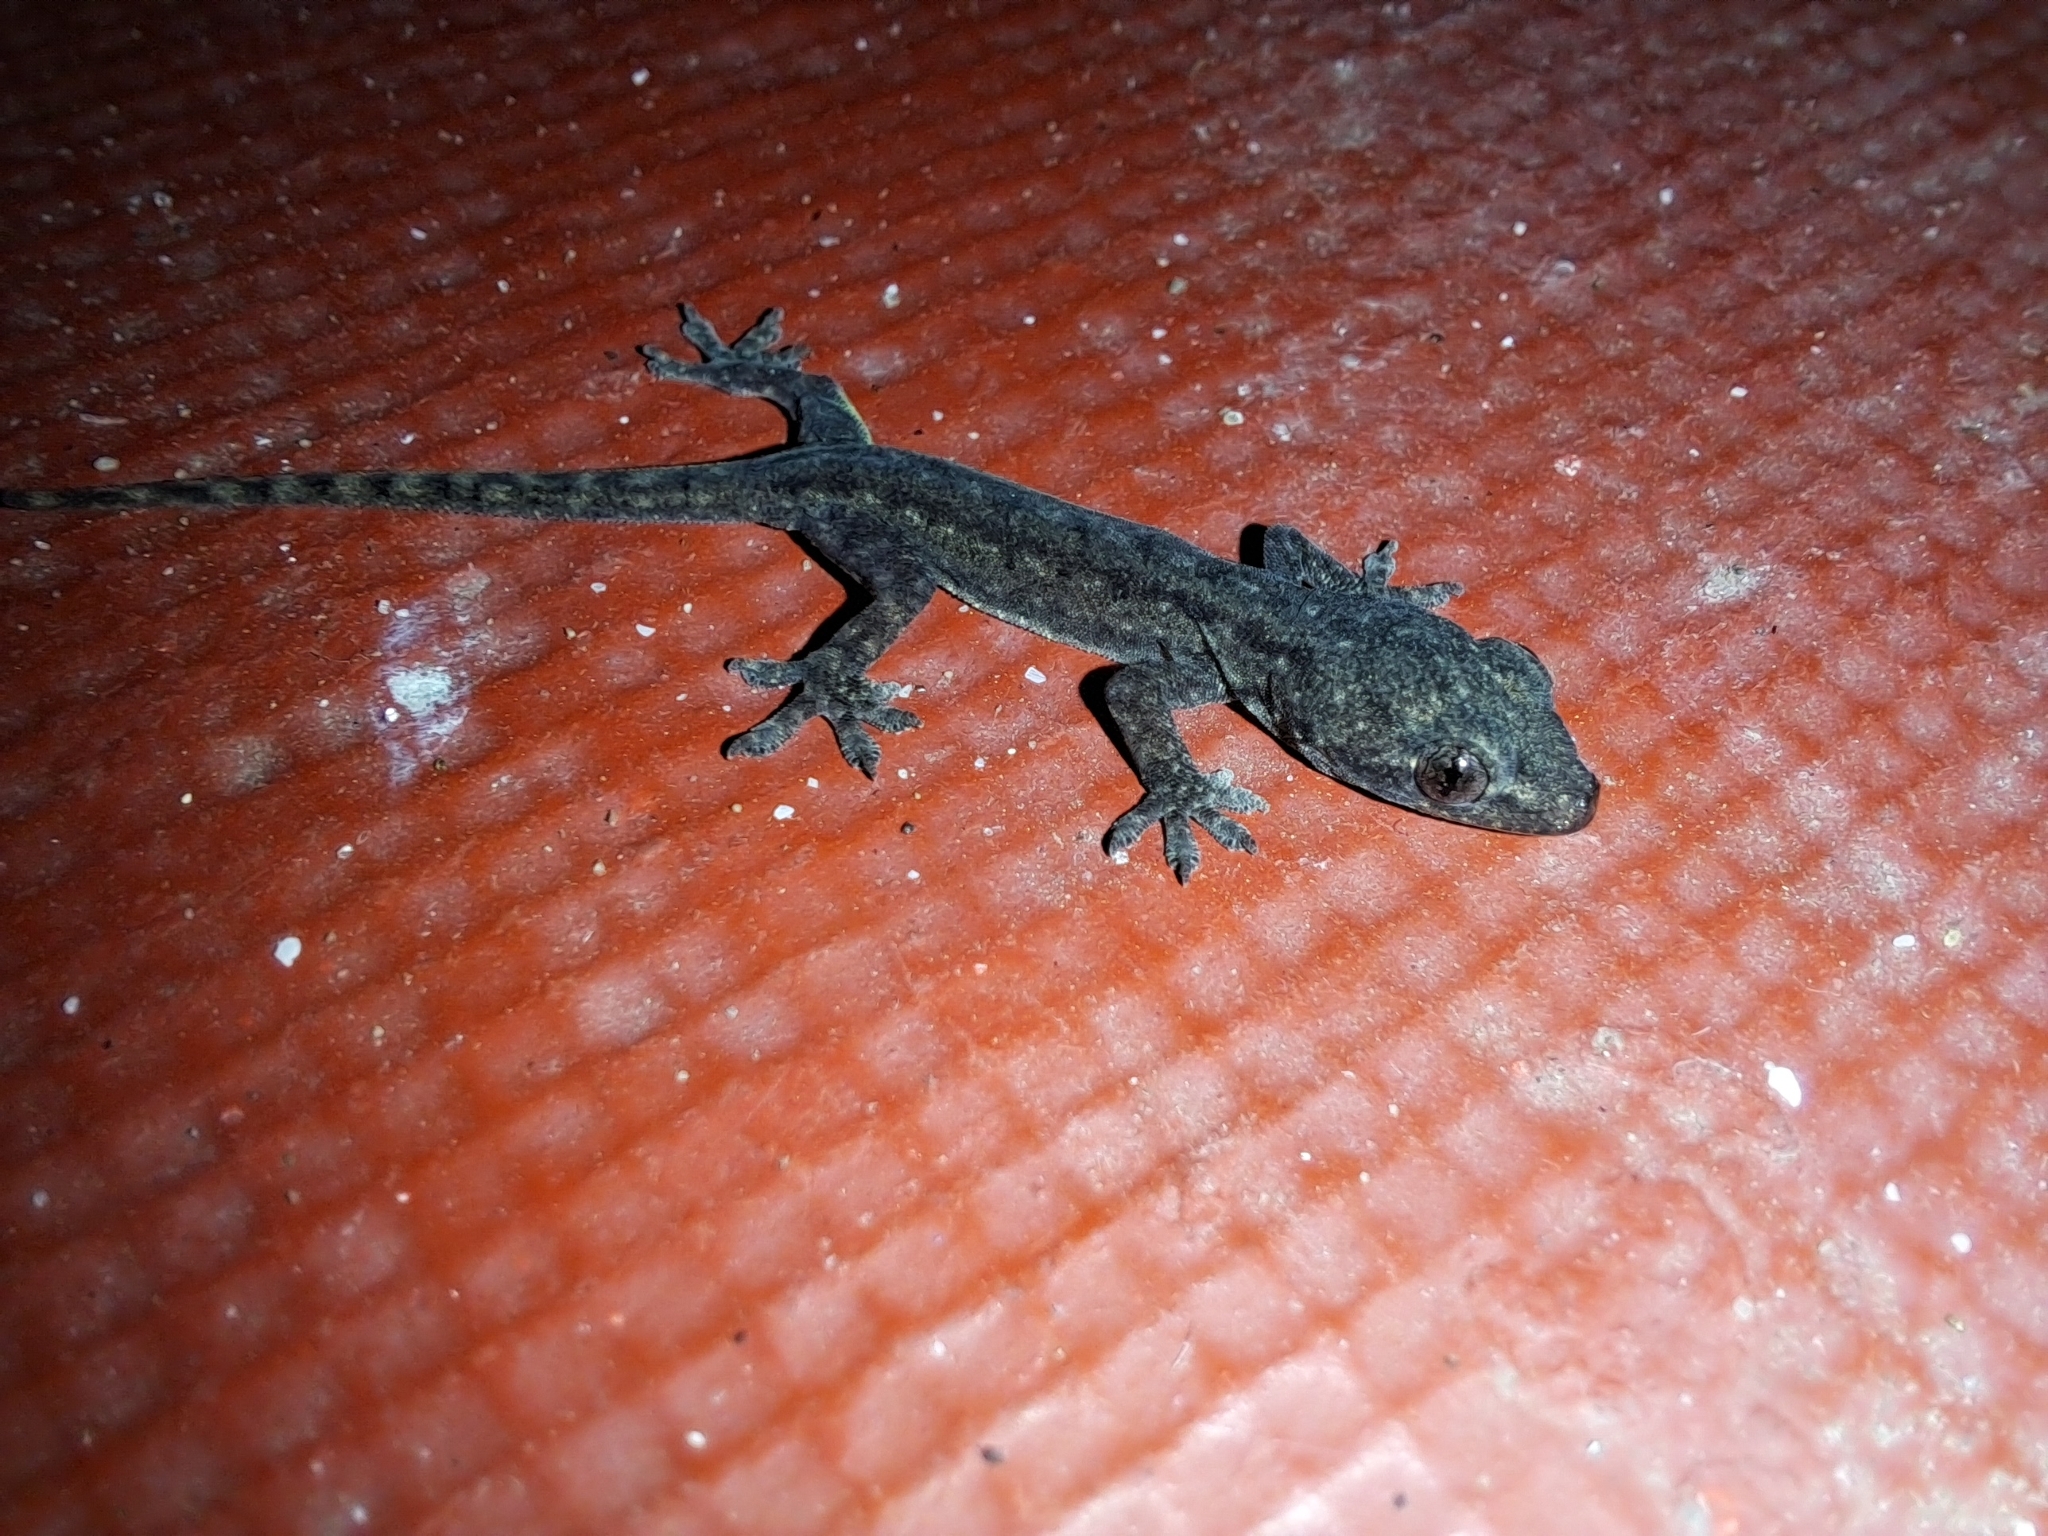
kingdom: Animalia
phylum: Chordata
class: Squamata
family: Gekkonidae
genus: Hemidactylus
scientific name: Hemidactylus frenatus
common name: Common house gecko
